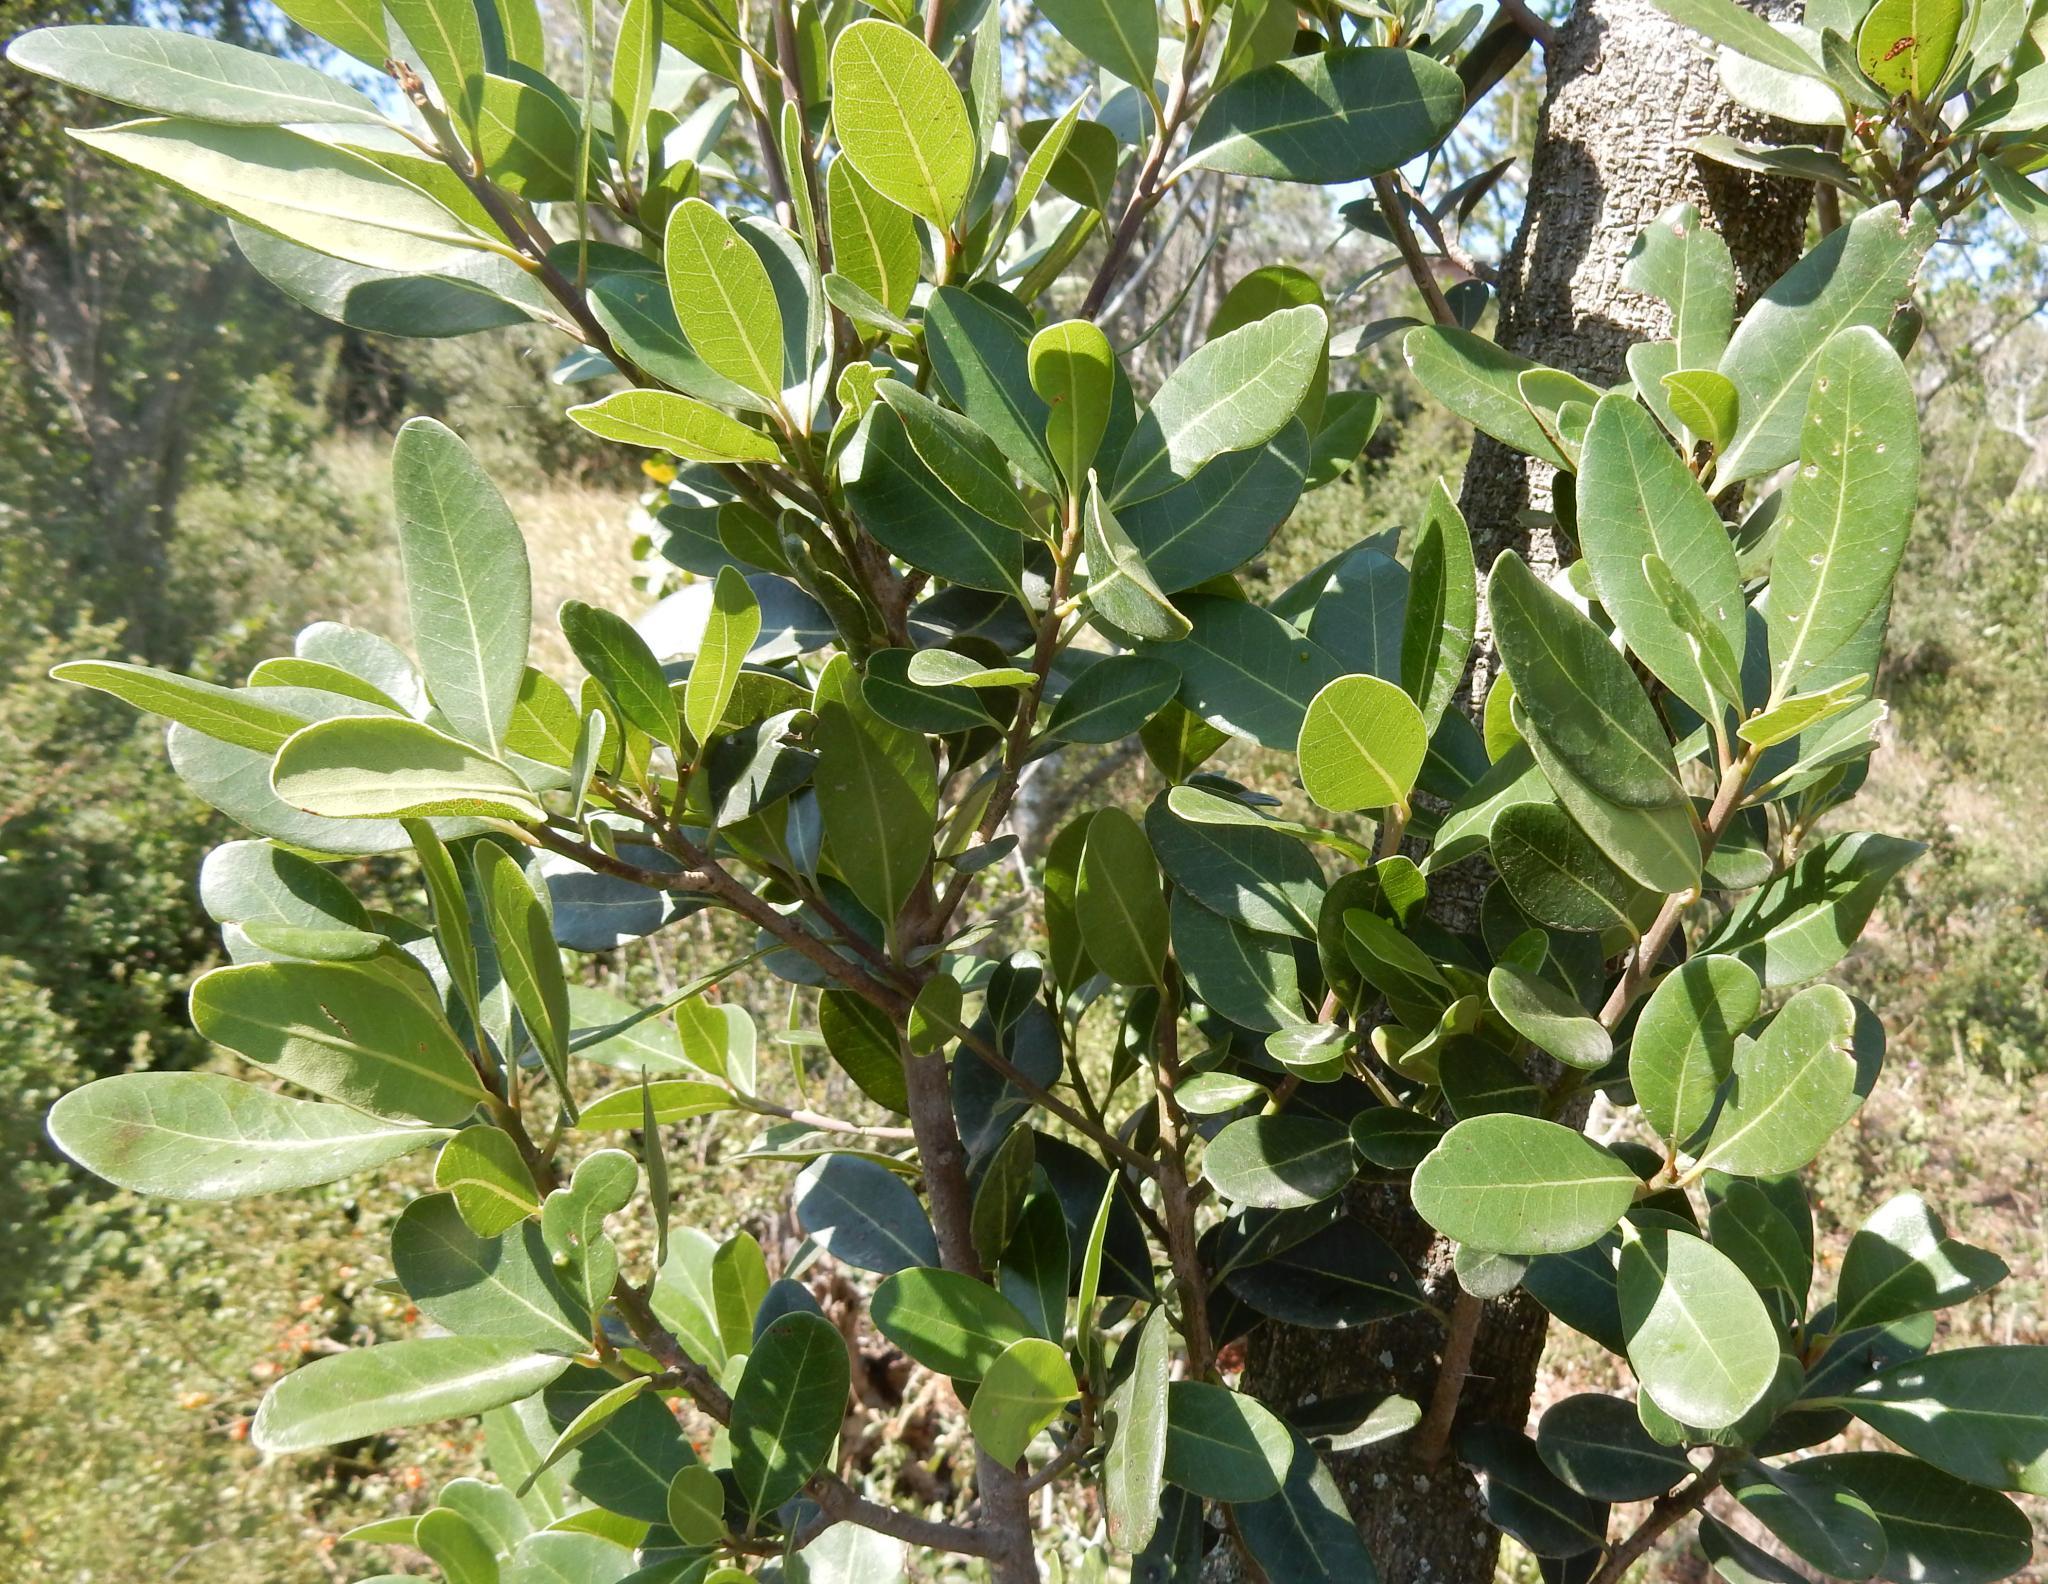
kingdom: Plantae
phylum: Tracheophyta
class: Magnoliopsida
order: Ericales
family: Sapotaceae
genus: Sideroxylon
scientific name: Sideroxylon inerme
